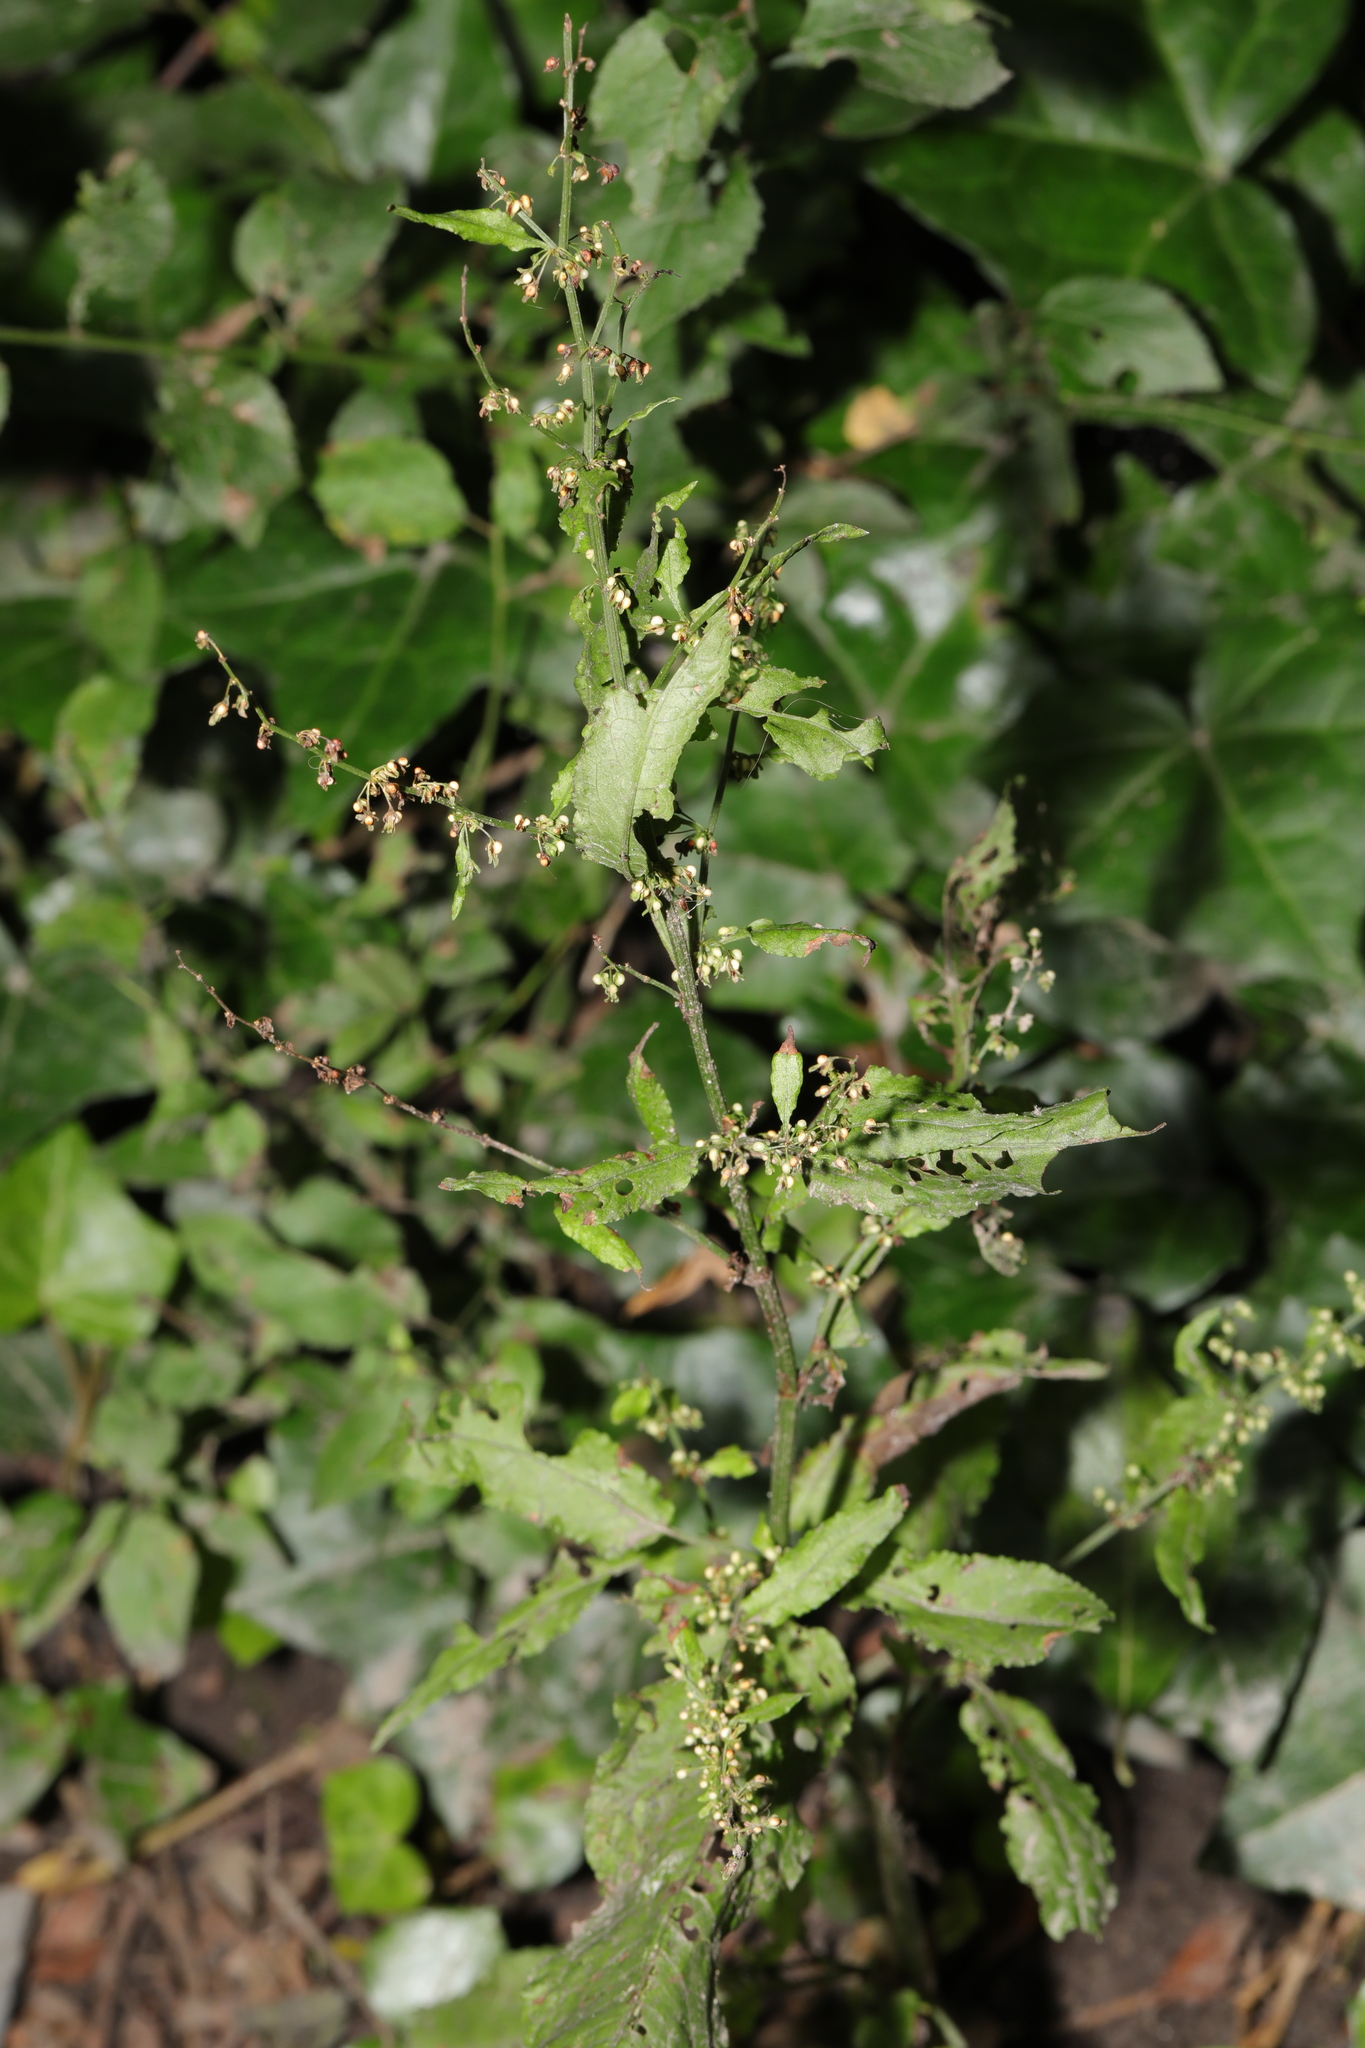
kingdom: Plantae
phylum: Tracheophyta
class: Magnoliopsida
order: Caryophyllales
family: Polygonaceae
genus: Rumex
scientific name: Rumex sanguineus
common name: Wood dock
